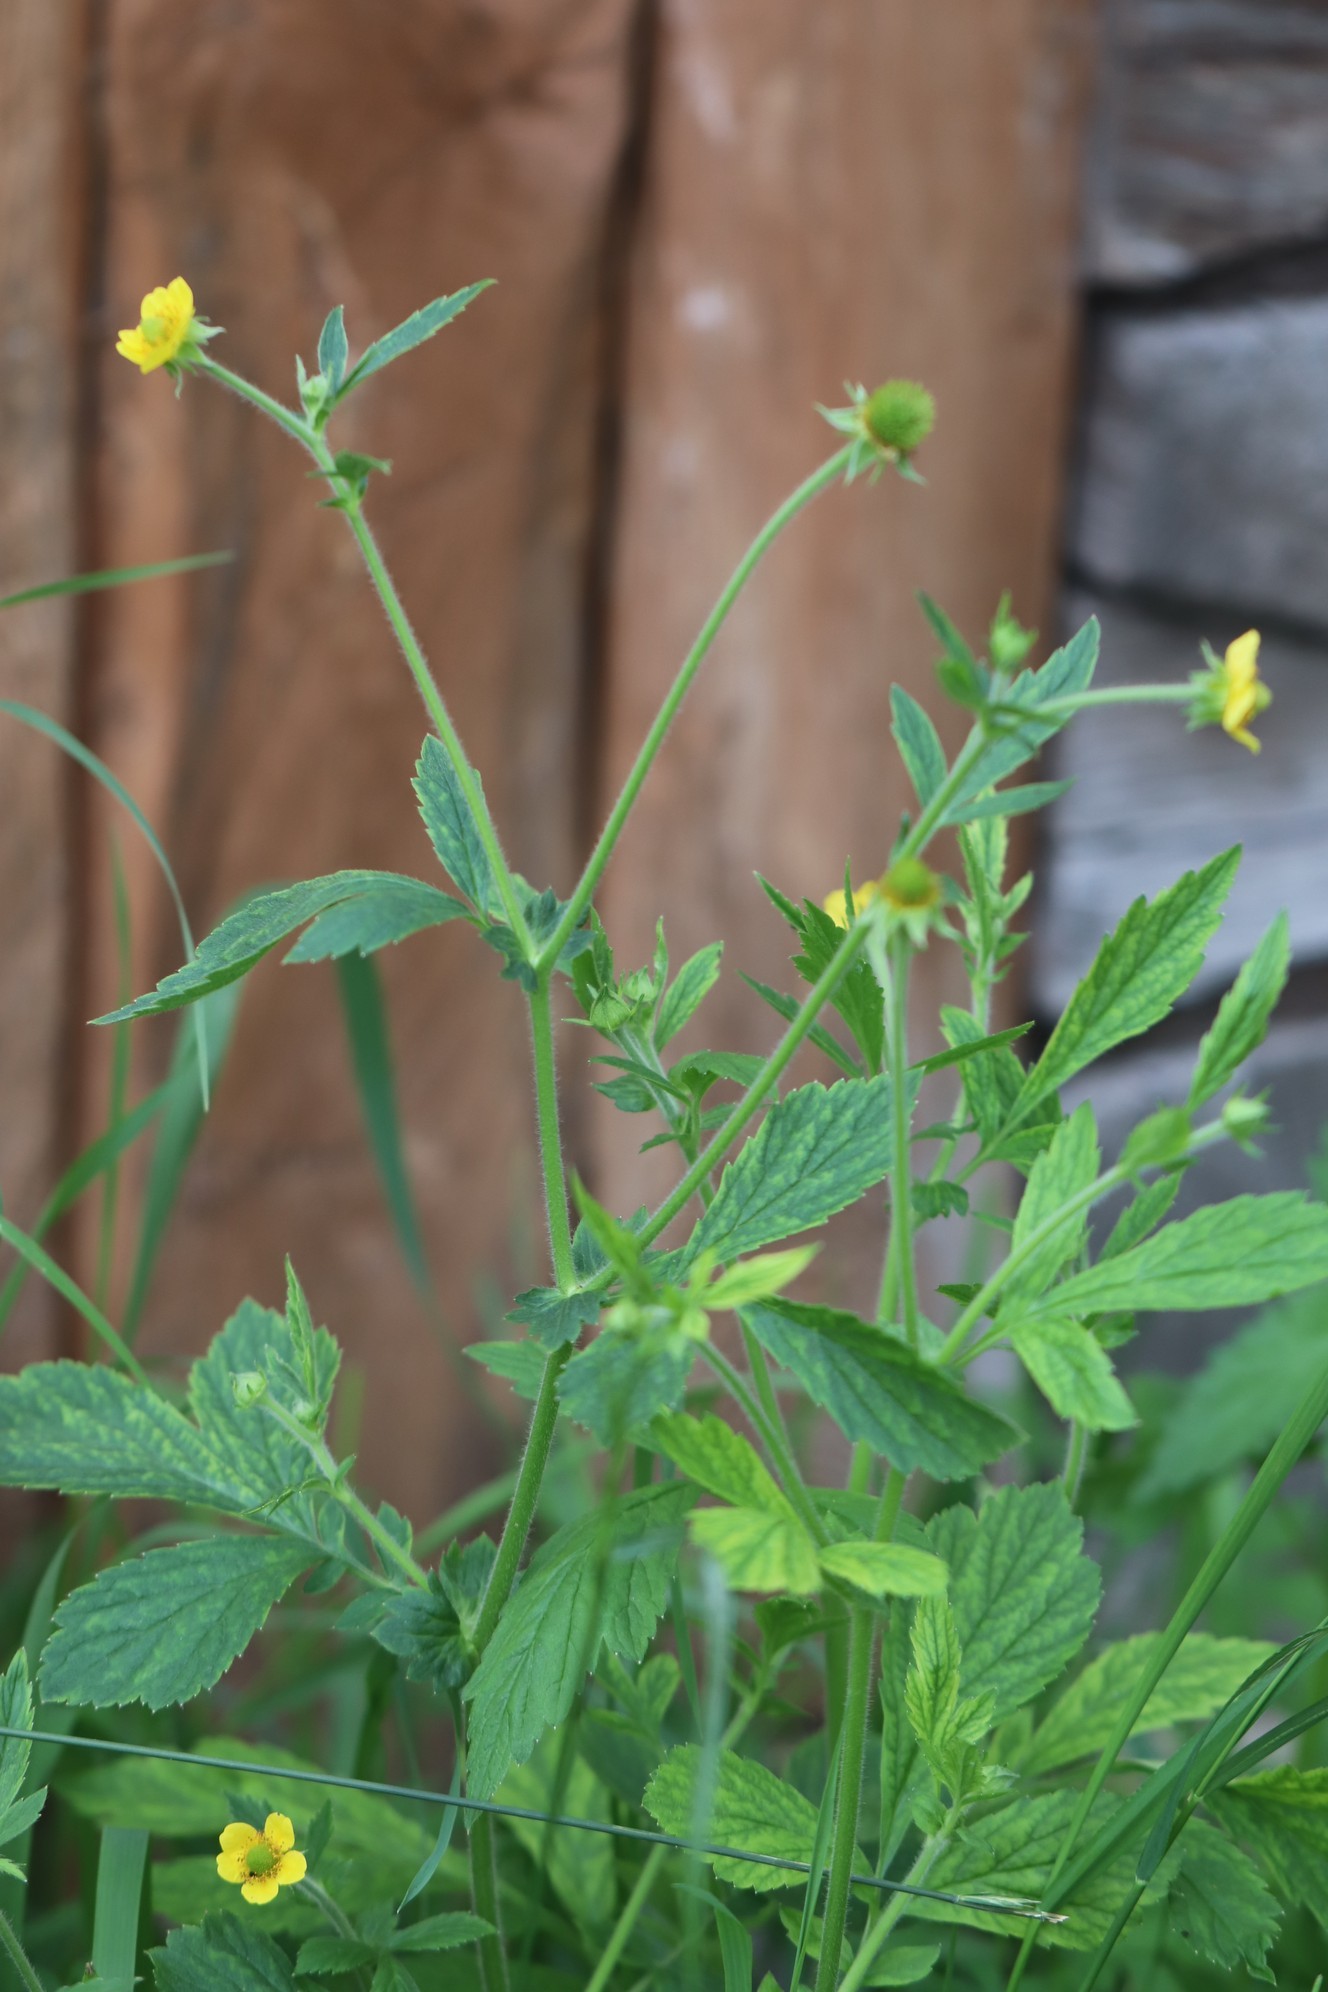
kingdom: Plantae
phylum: Tracheophyta
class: Magnoliopsida
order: Rosales
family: Rosaceae
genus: Geum
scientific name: Geum aleppicum
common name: Yellow avens
